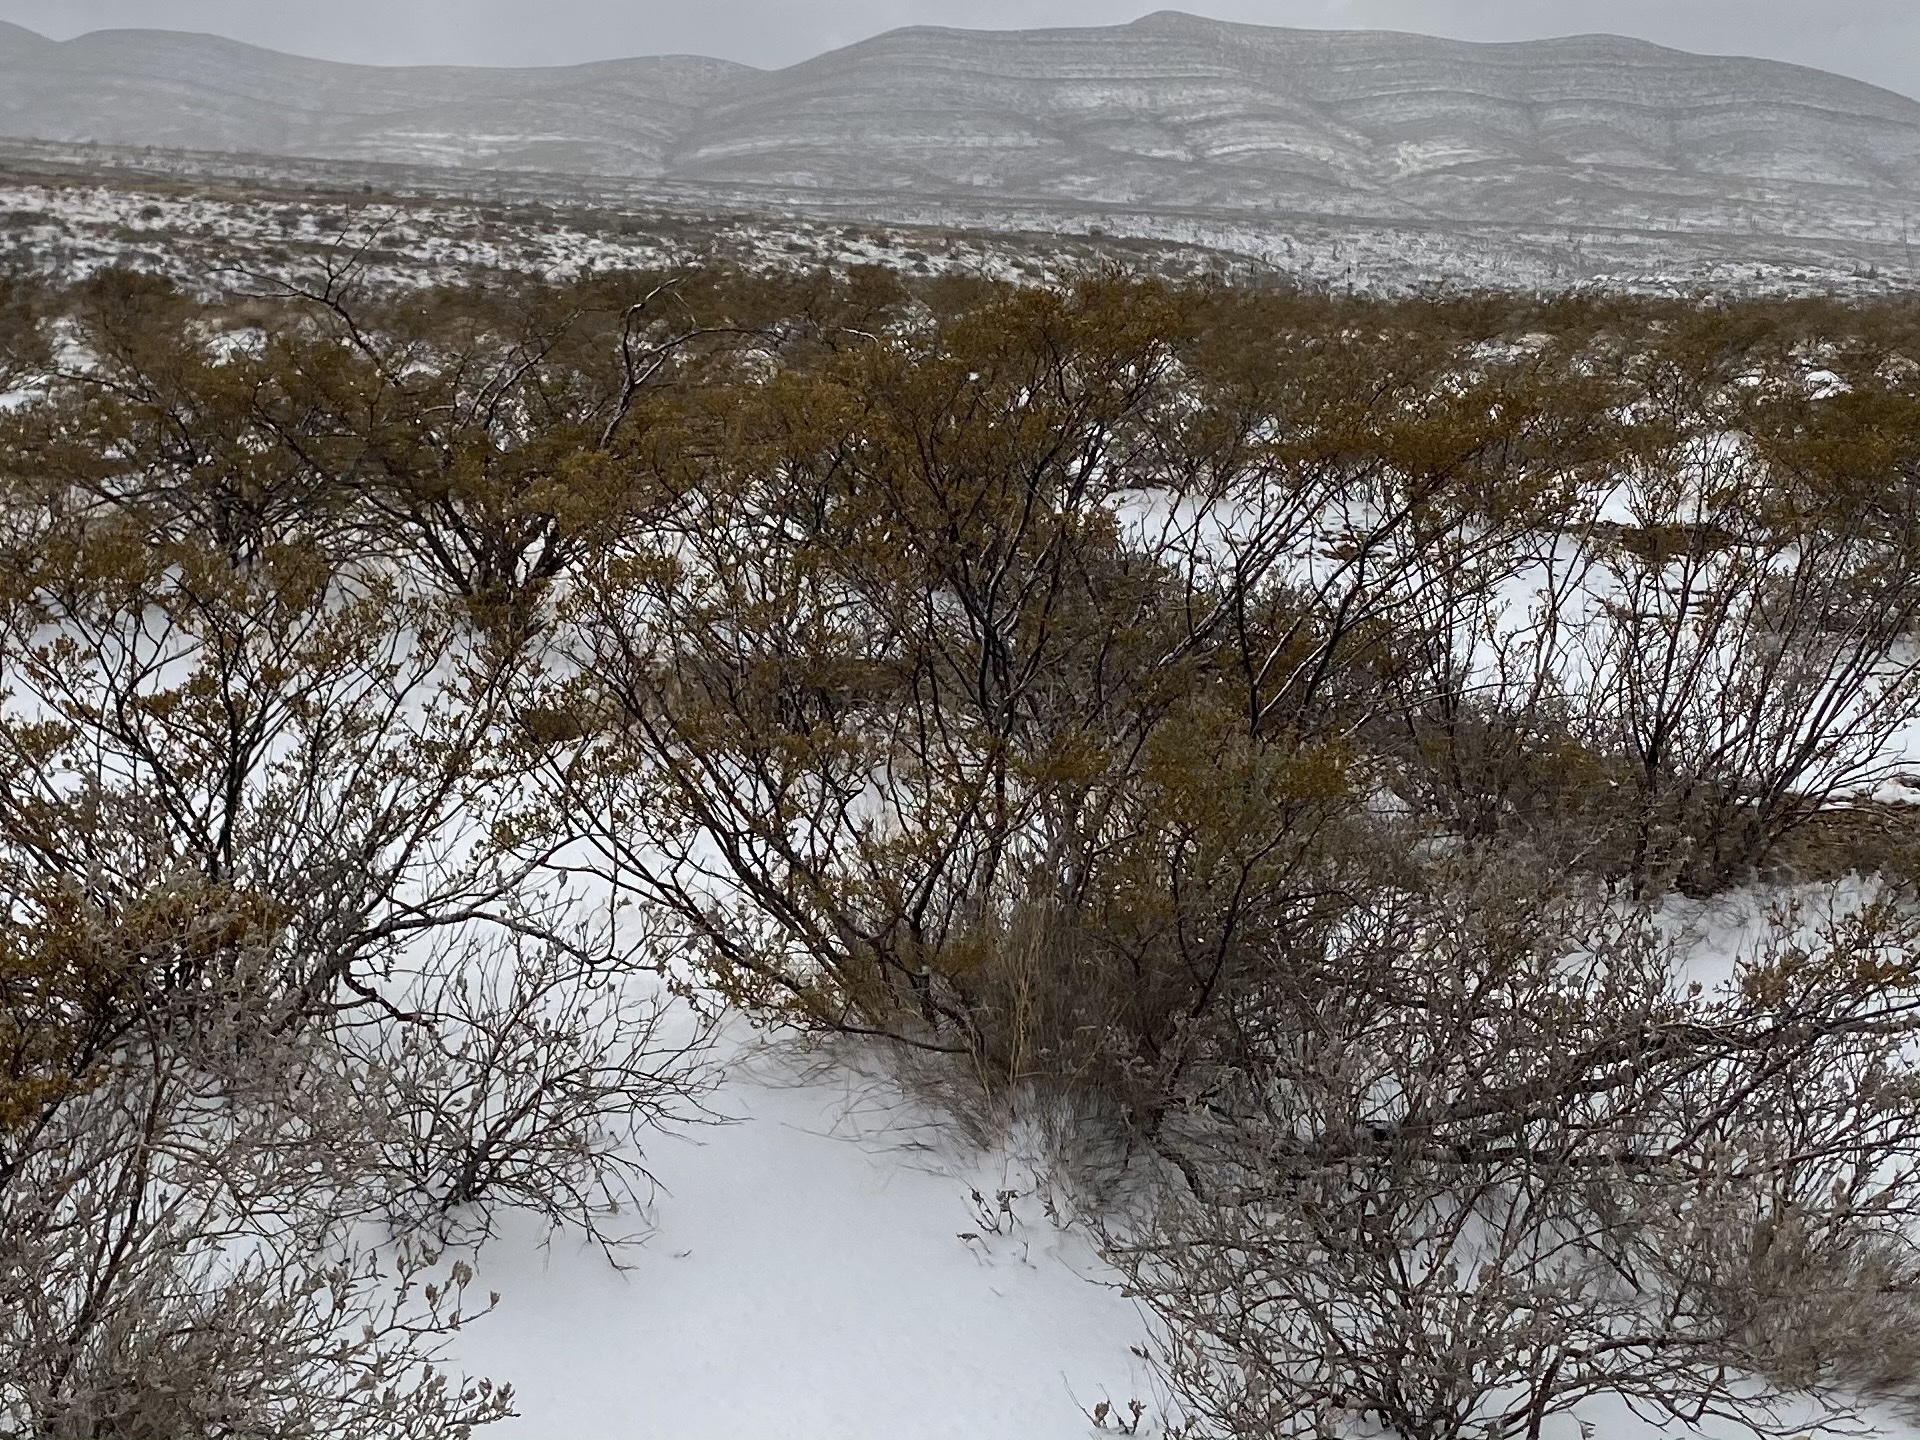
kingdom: Plantae
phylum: Tracheophyta
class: Magnoliopsida
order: Zygophyllales
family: Zygophyllaceae
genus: Larrea
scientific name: Larrea tridentata
